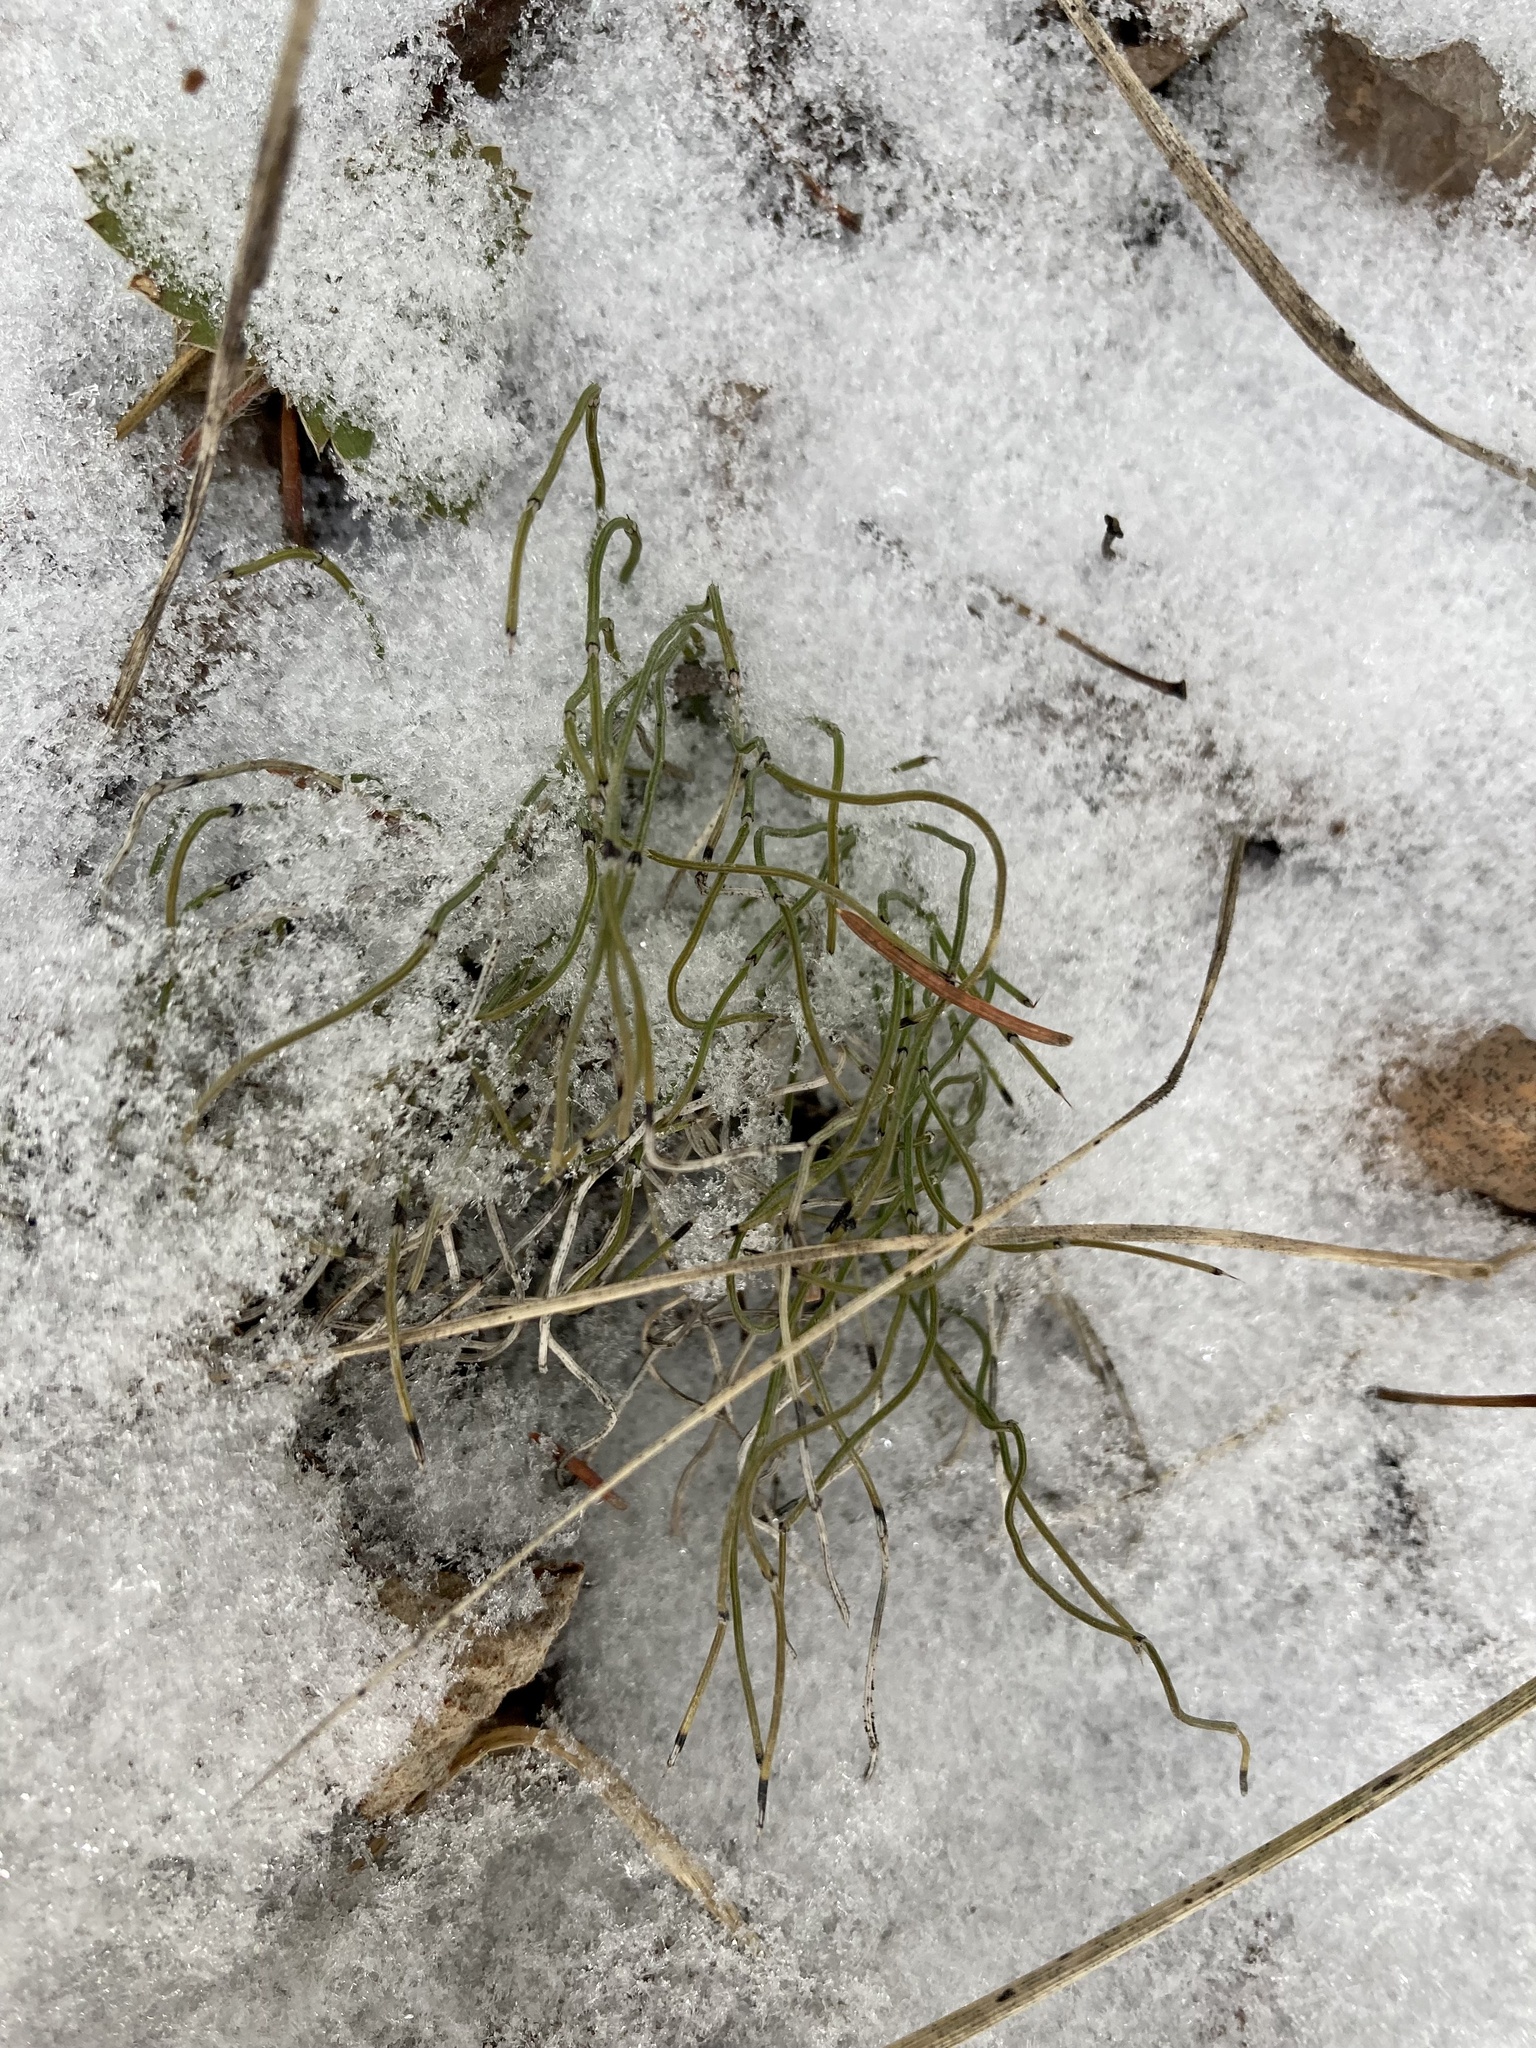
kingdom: Plantae
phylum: Tracheophyta
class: Polypodiopsida
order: Equisetales
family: Equisetaceae
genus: Equisetum
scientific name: Equisetum scirpoides
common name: Delicate horsetail
